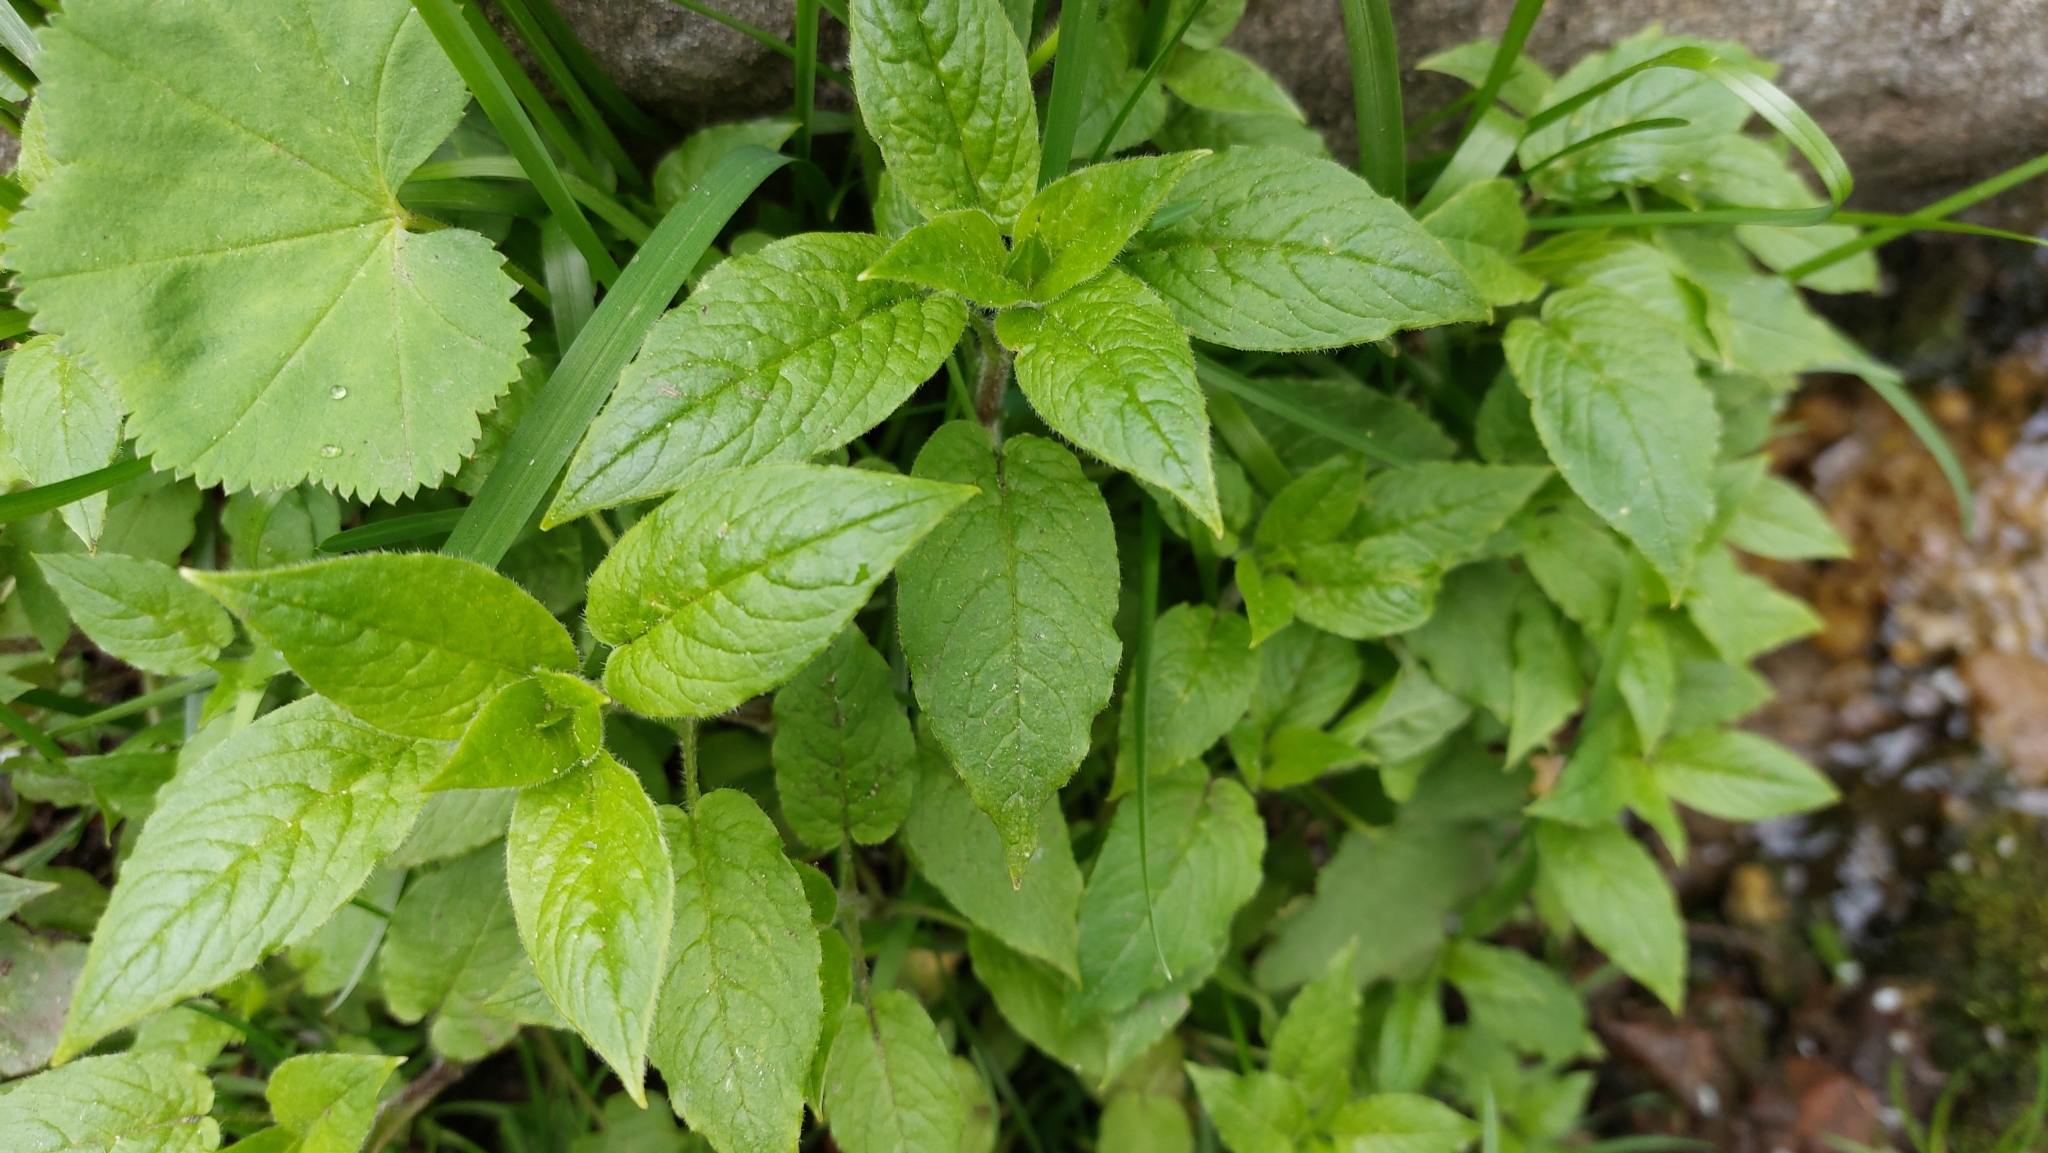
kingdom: Plantae
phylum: Tracheophyta
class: Magnoliopsida
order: Caryophyllales
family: Caryophyllaceae
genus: Stellaria
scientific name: Stellaria bungeana
